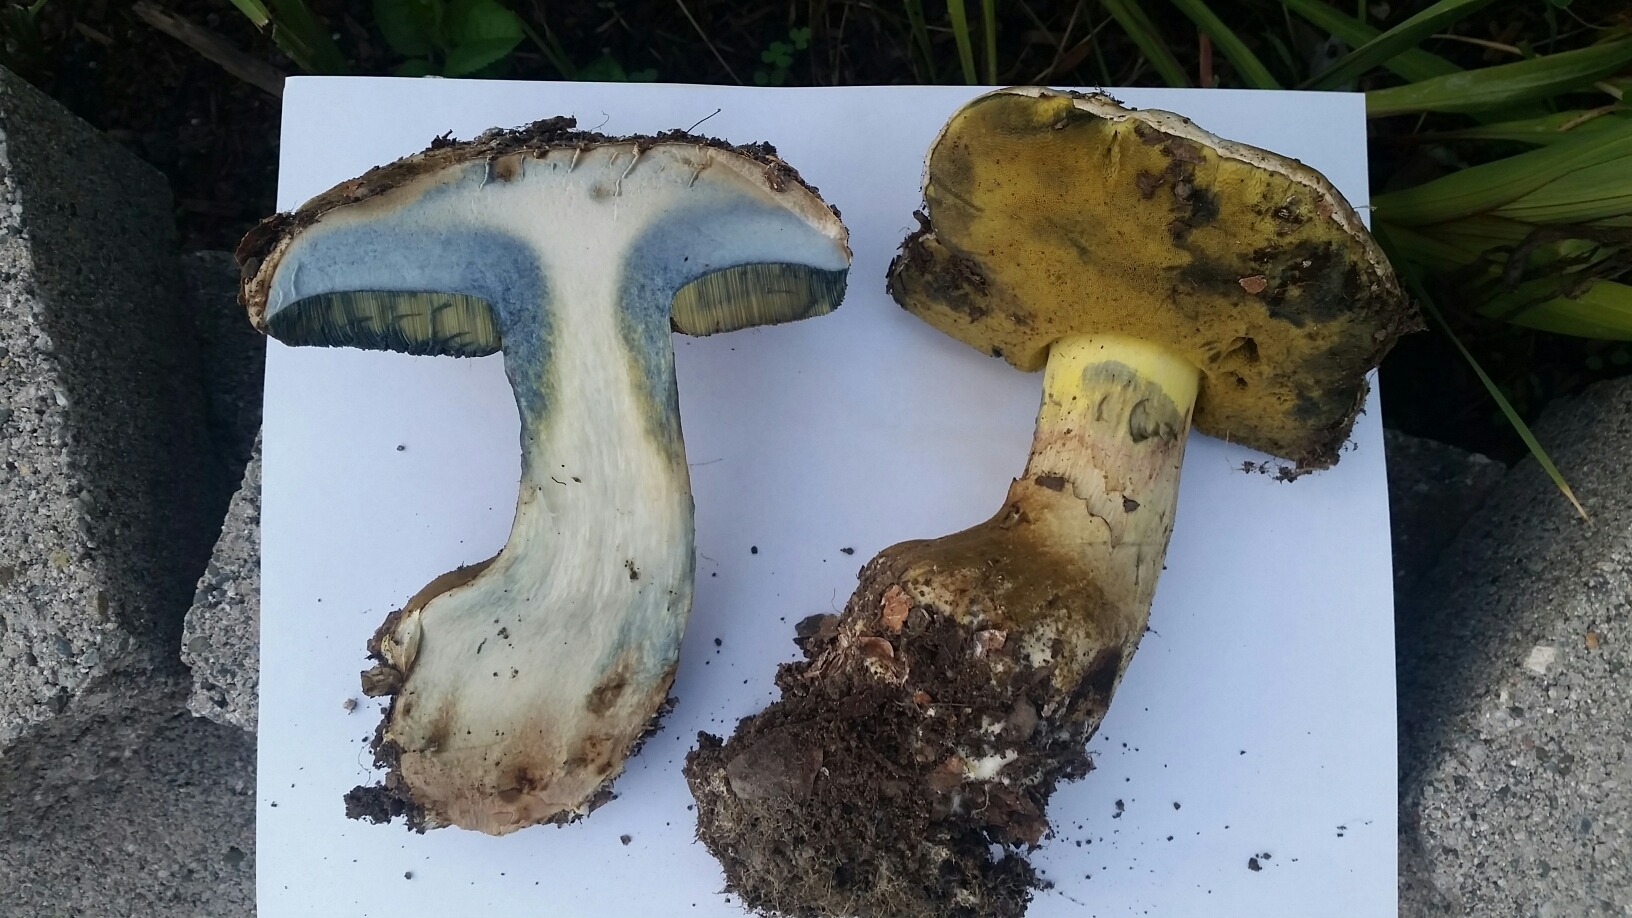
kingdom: Fungi
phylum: Basidiomycota
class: Agaricomycetes
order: Boletales
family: Boletaceae
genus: Caloboletus
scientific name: Caloboletus marshii
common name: Ben's bitter bolete
